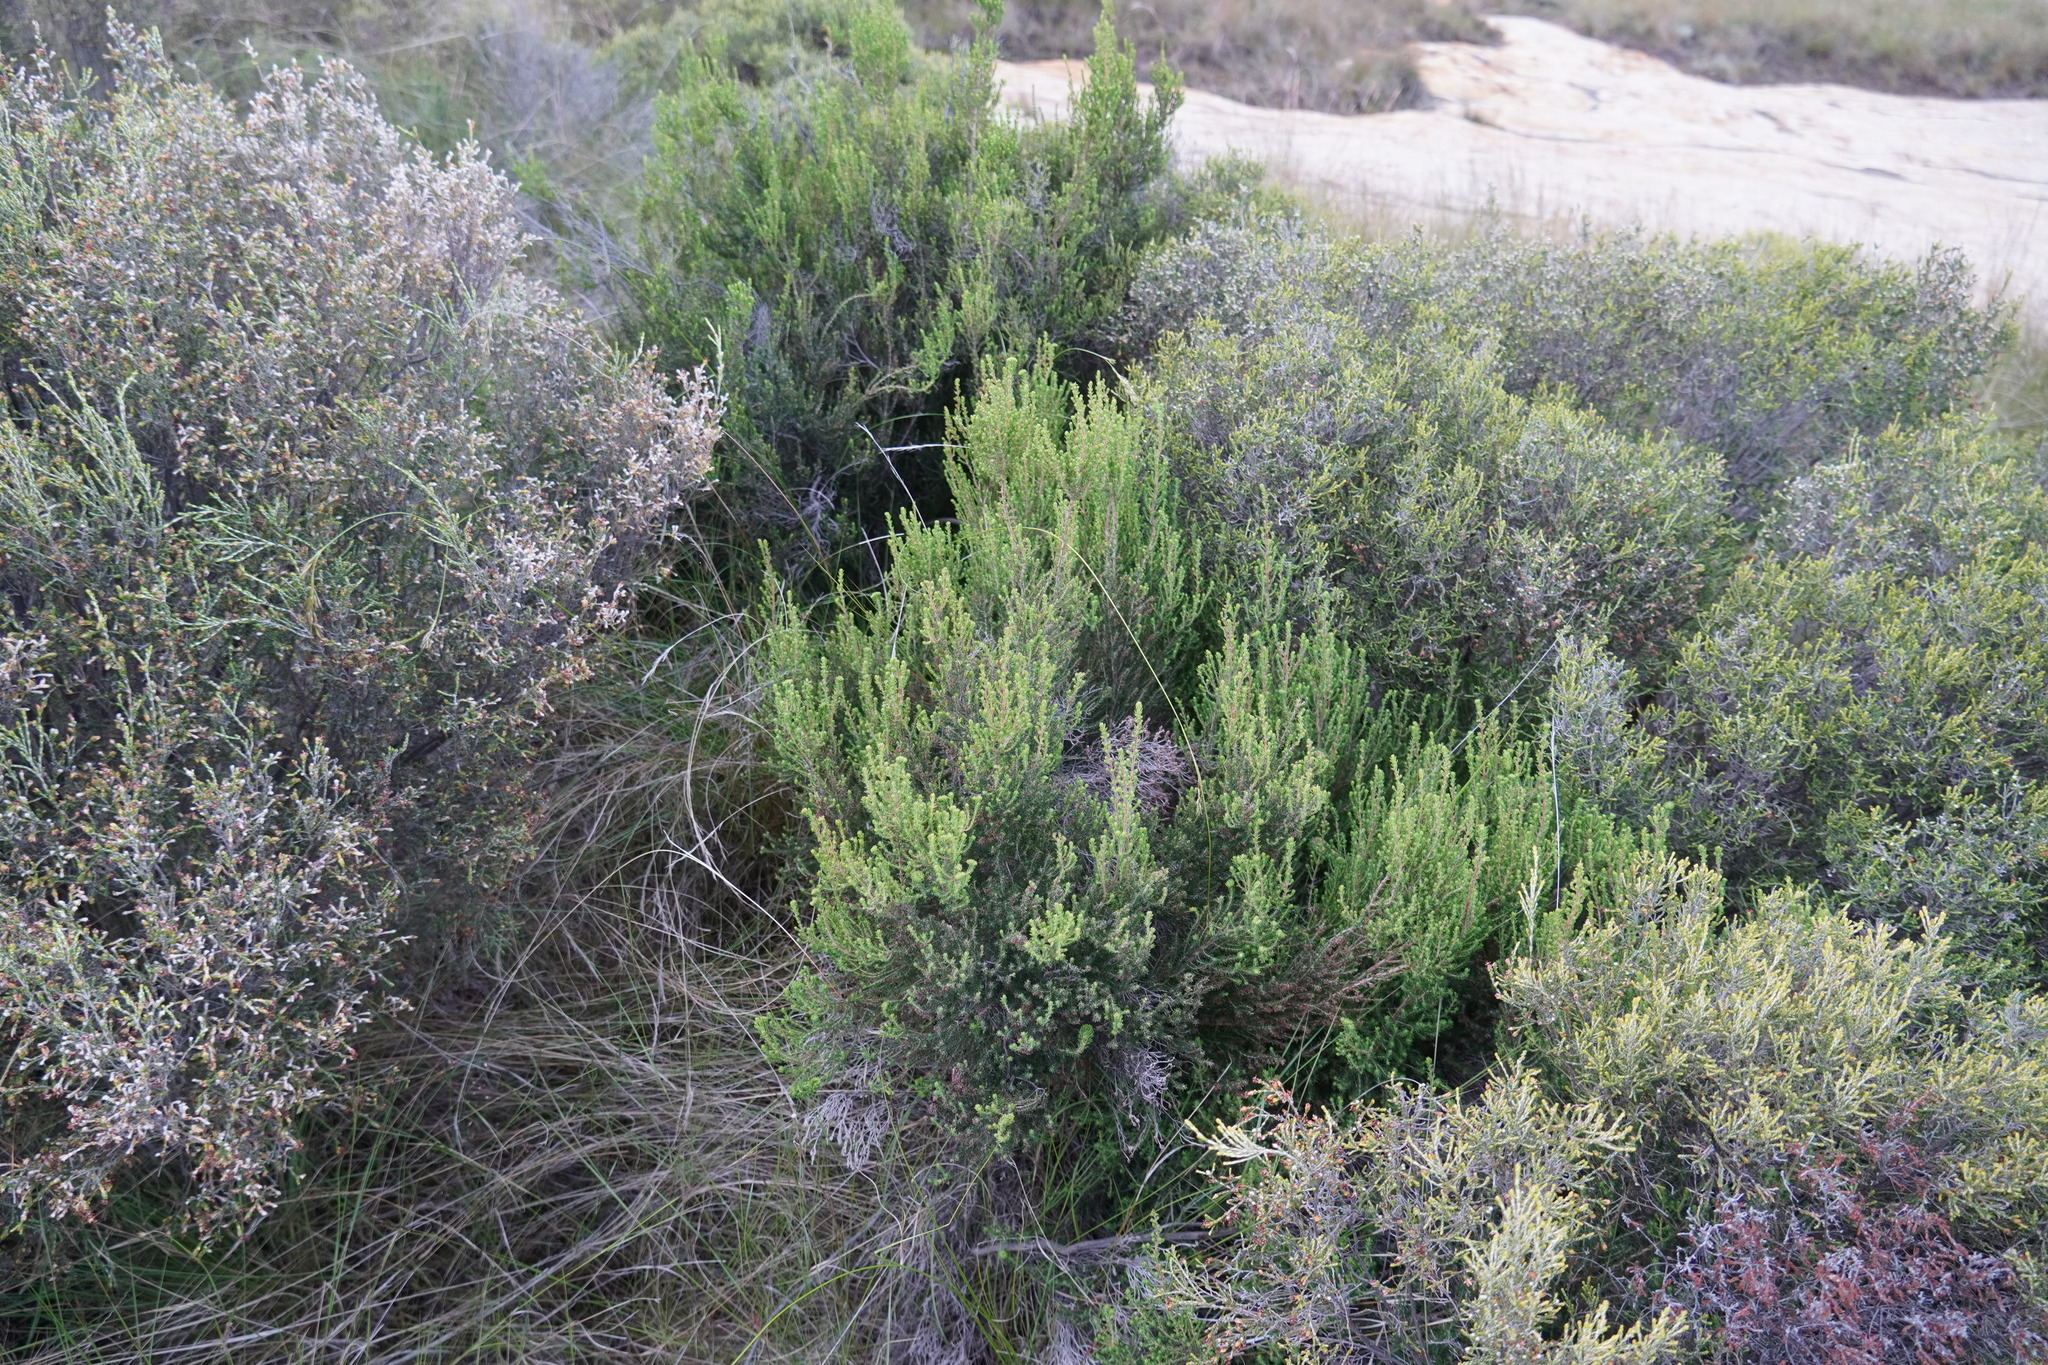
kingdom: Plantae
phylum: Tracheophyta
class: Magnoliopsida
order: Ericales
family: Ericaceae
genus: Erica
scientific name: Erica maesta
